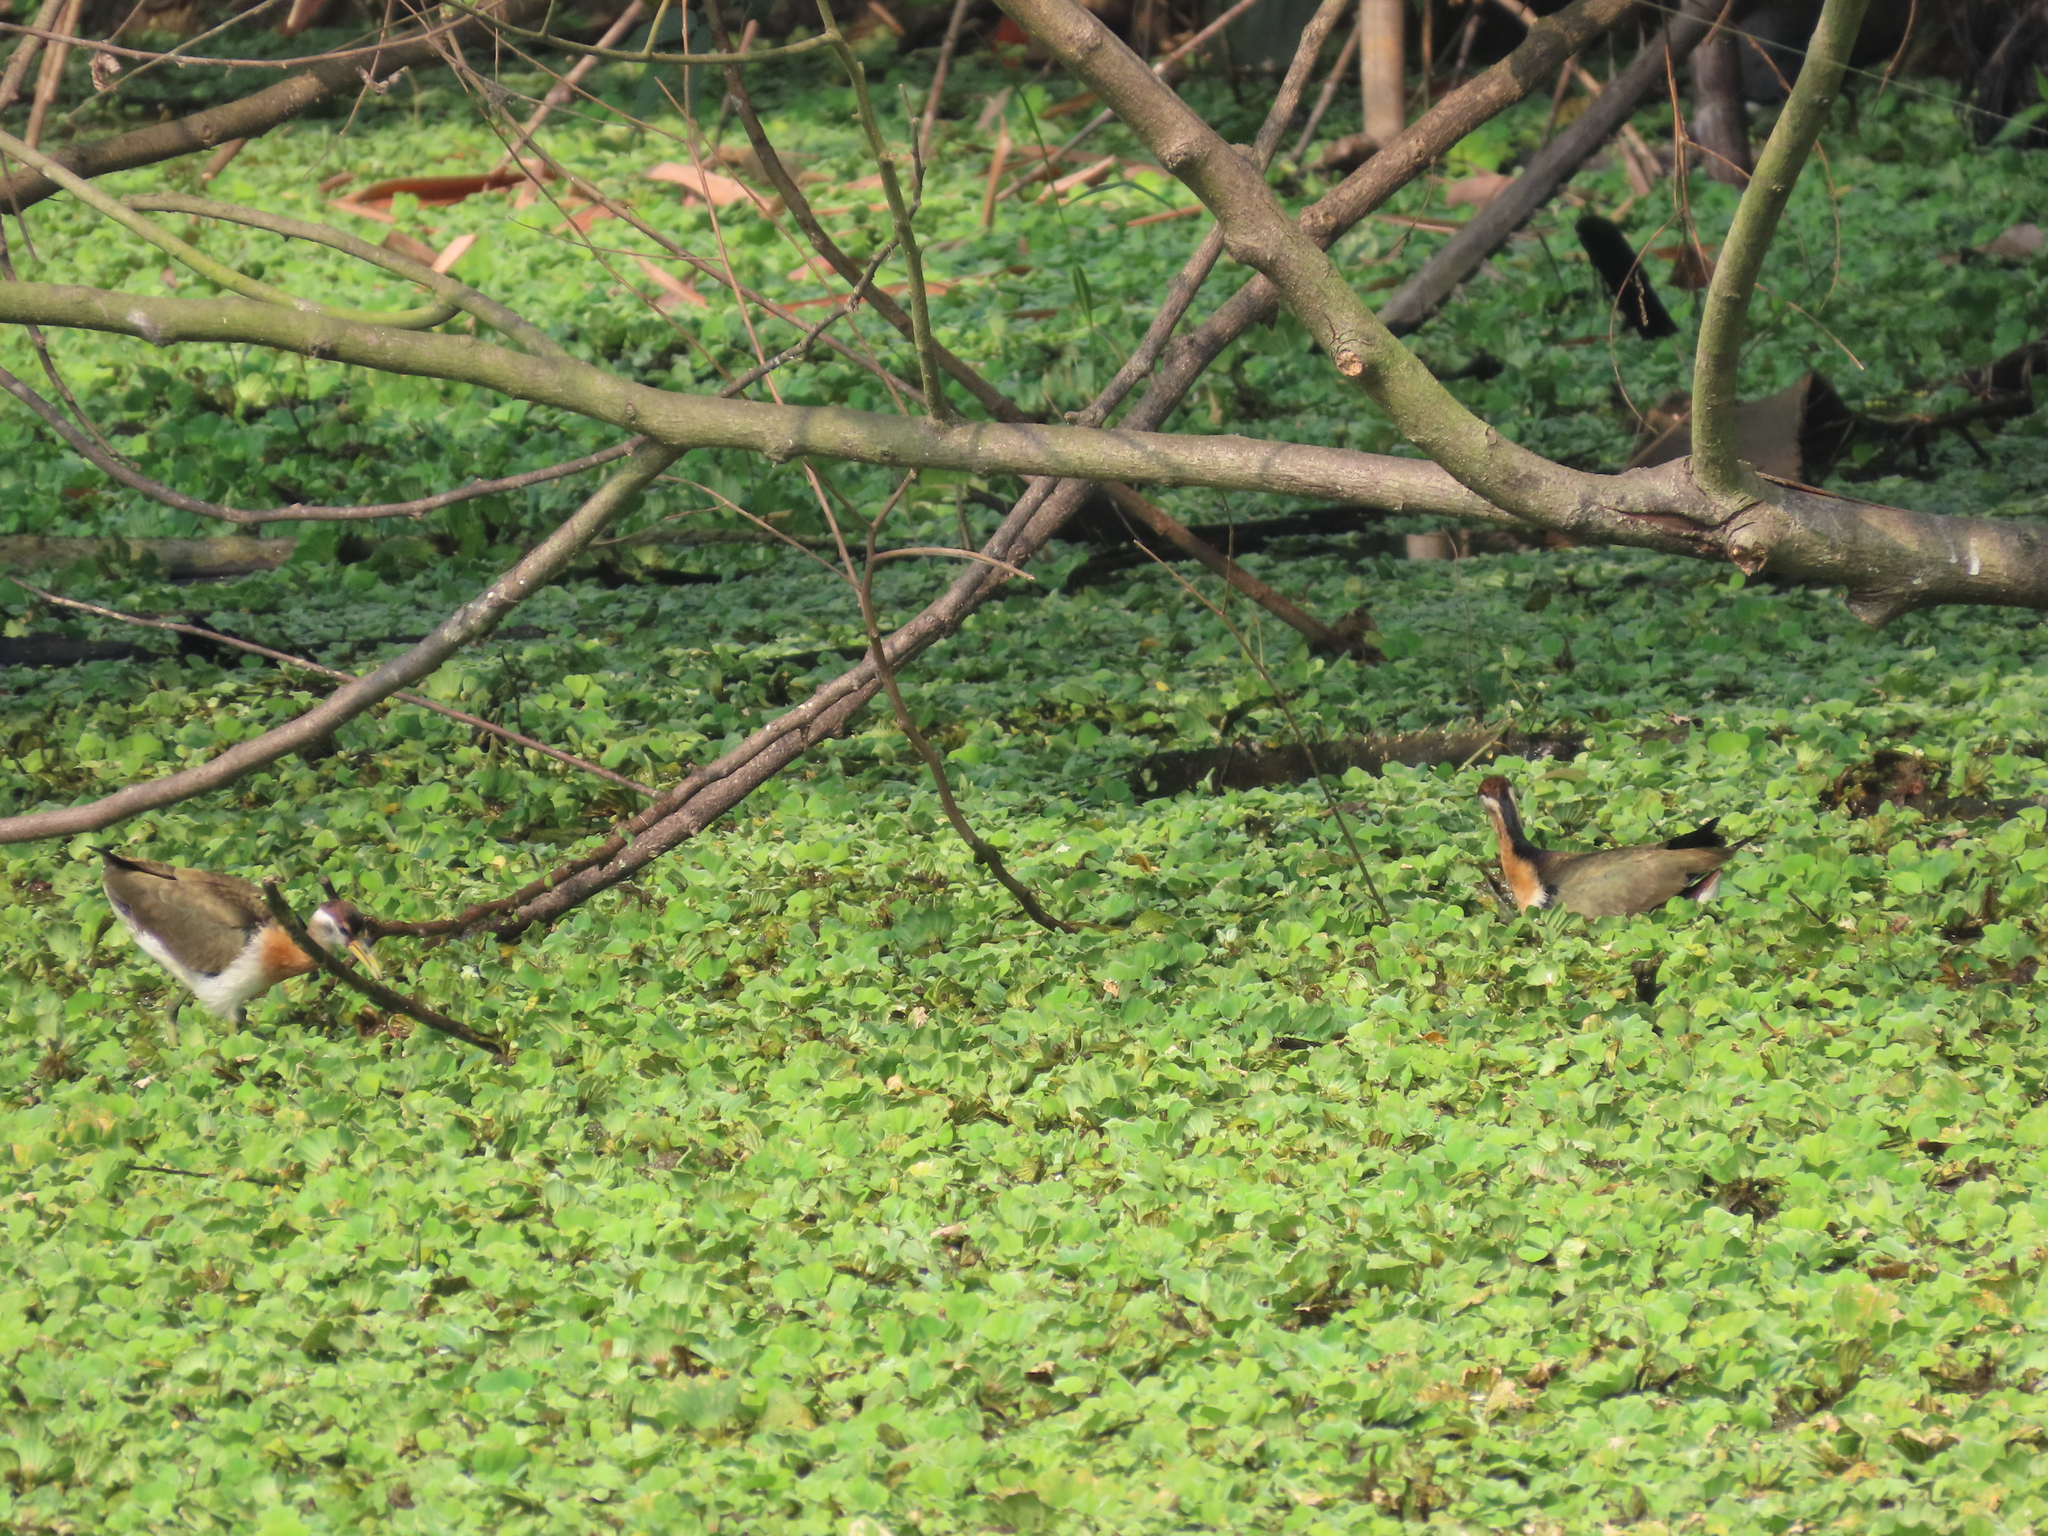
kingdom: Animalia
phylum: Chordata
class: Aves
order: Charadriiformes
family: Jacanidae
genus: Metopidius
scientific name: Metopidius indicus
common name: Bronze-winged jacana
